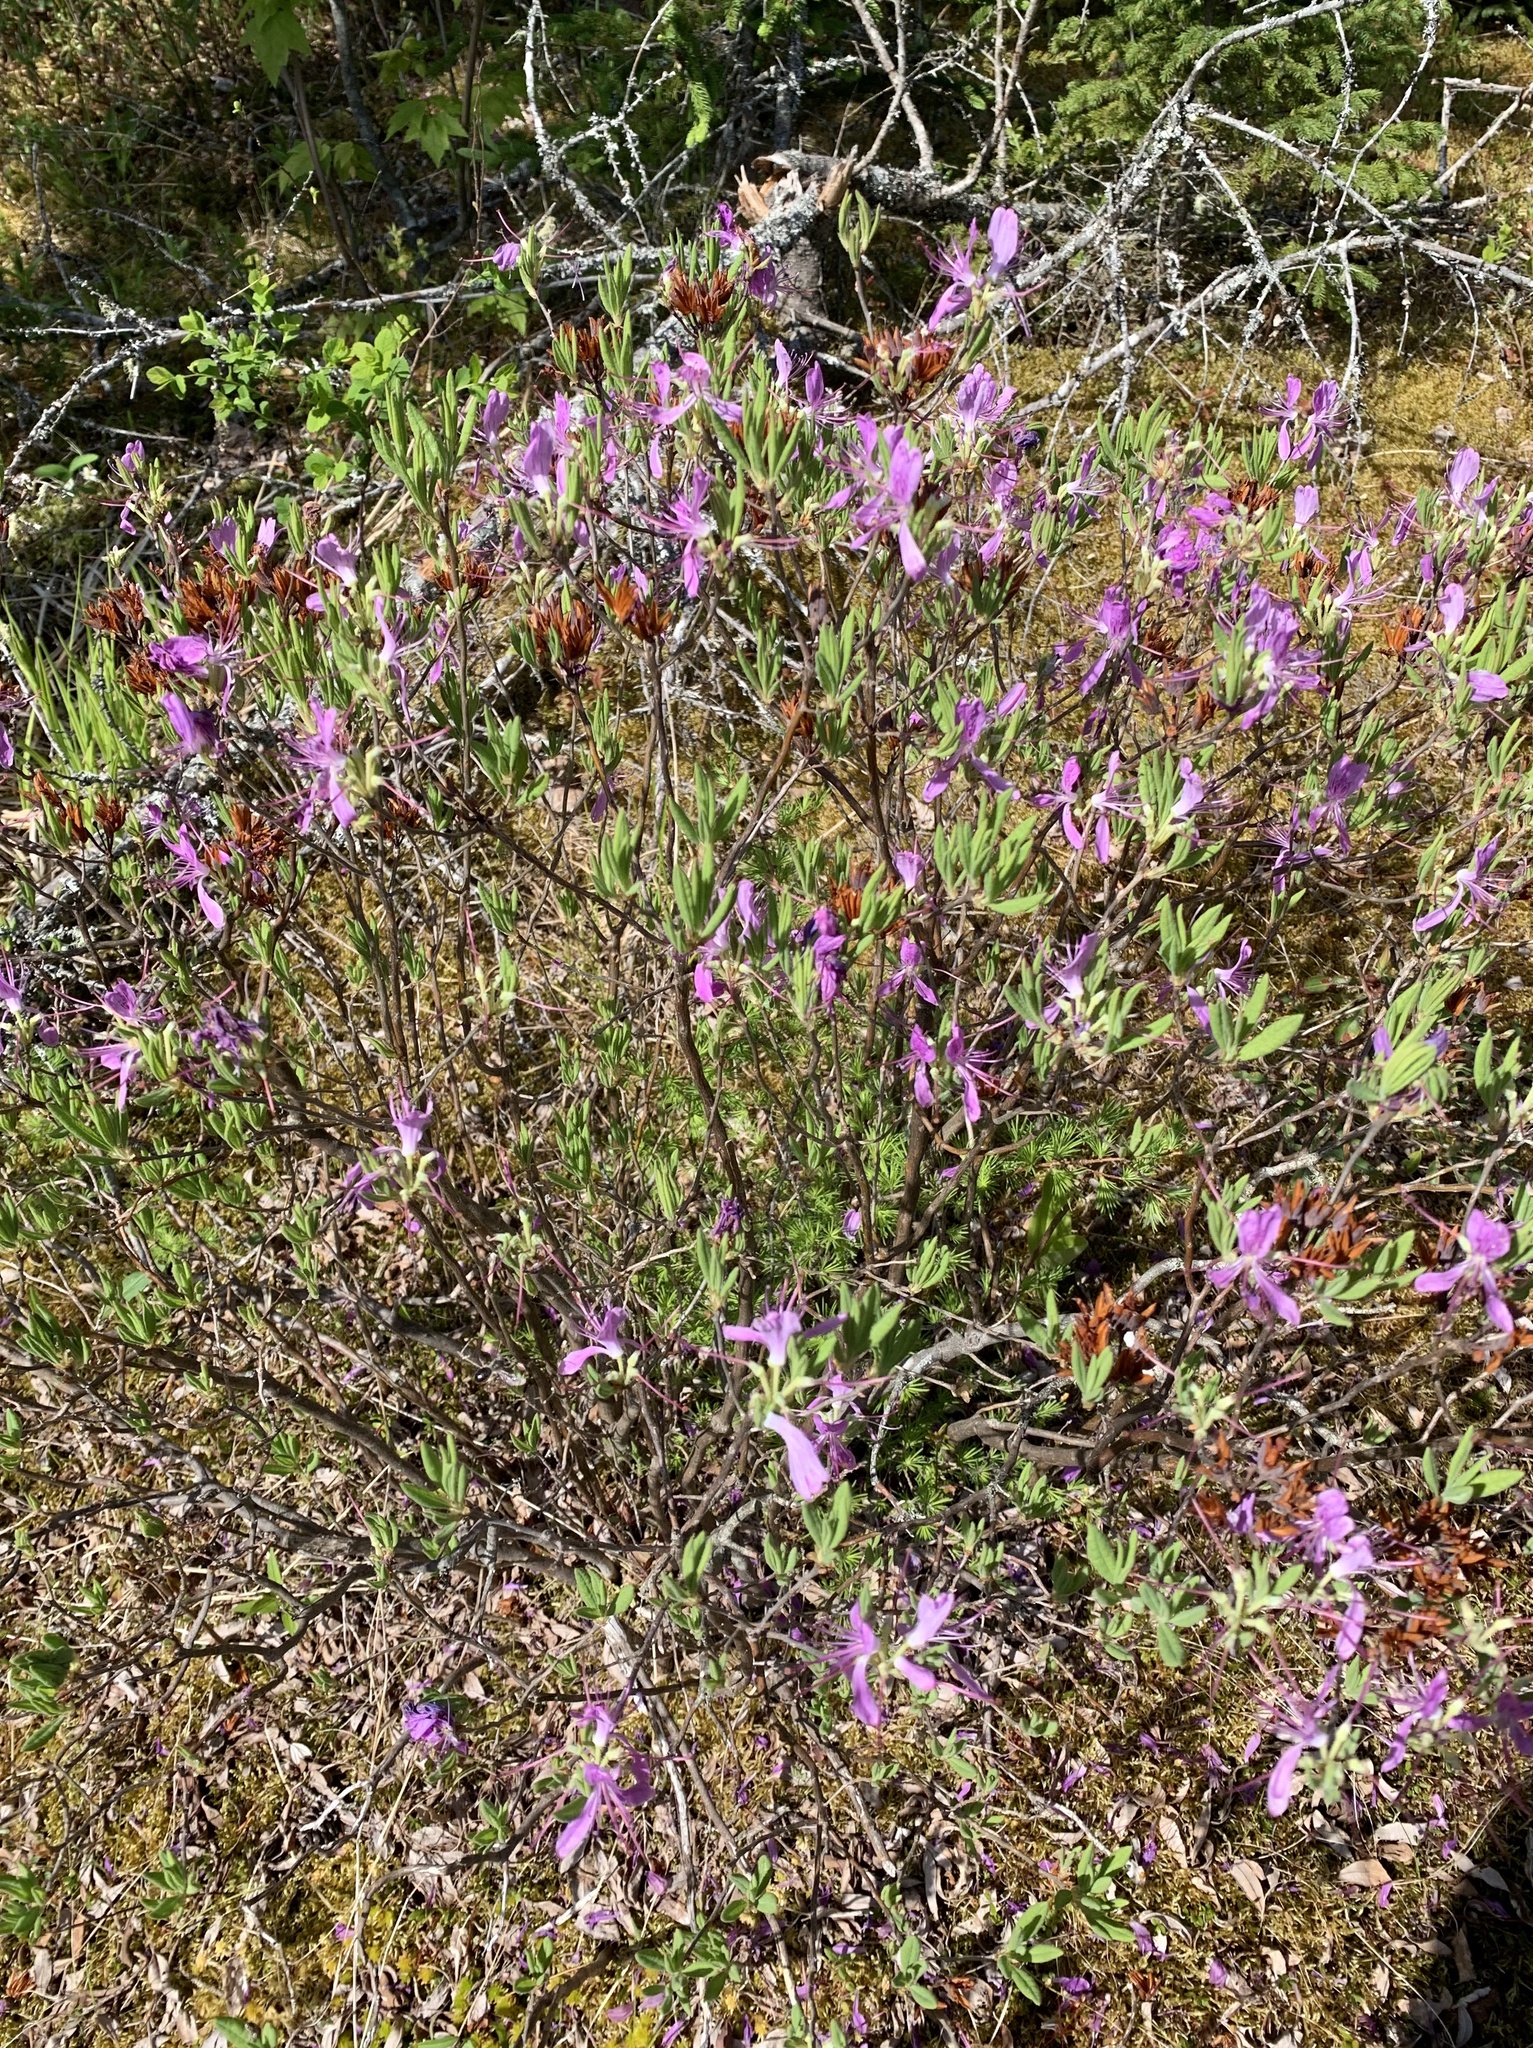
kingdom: Plantae
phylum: Tracheophyta
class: Magnoliopsida
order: Ericales
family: Ericaceae
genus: Rhododendron
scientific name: Rhododendron canadense
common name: Rhodora
